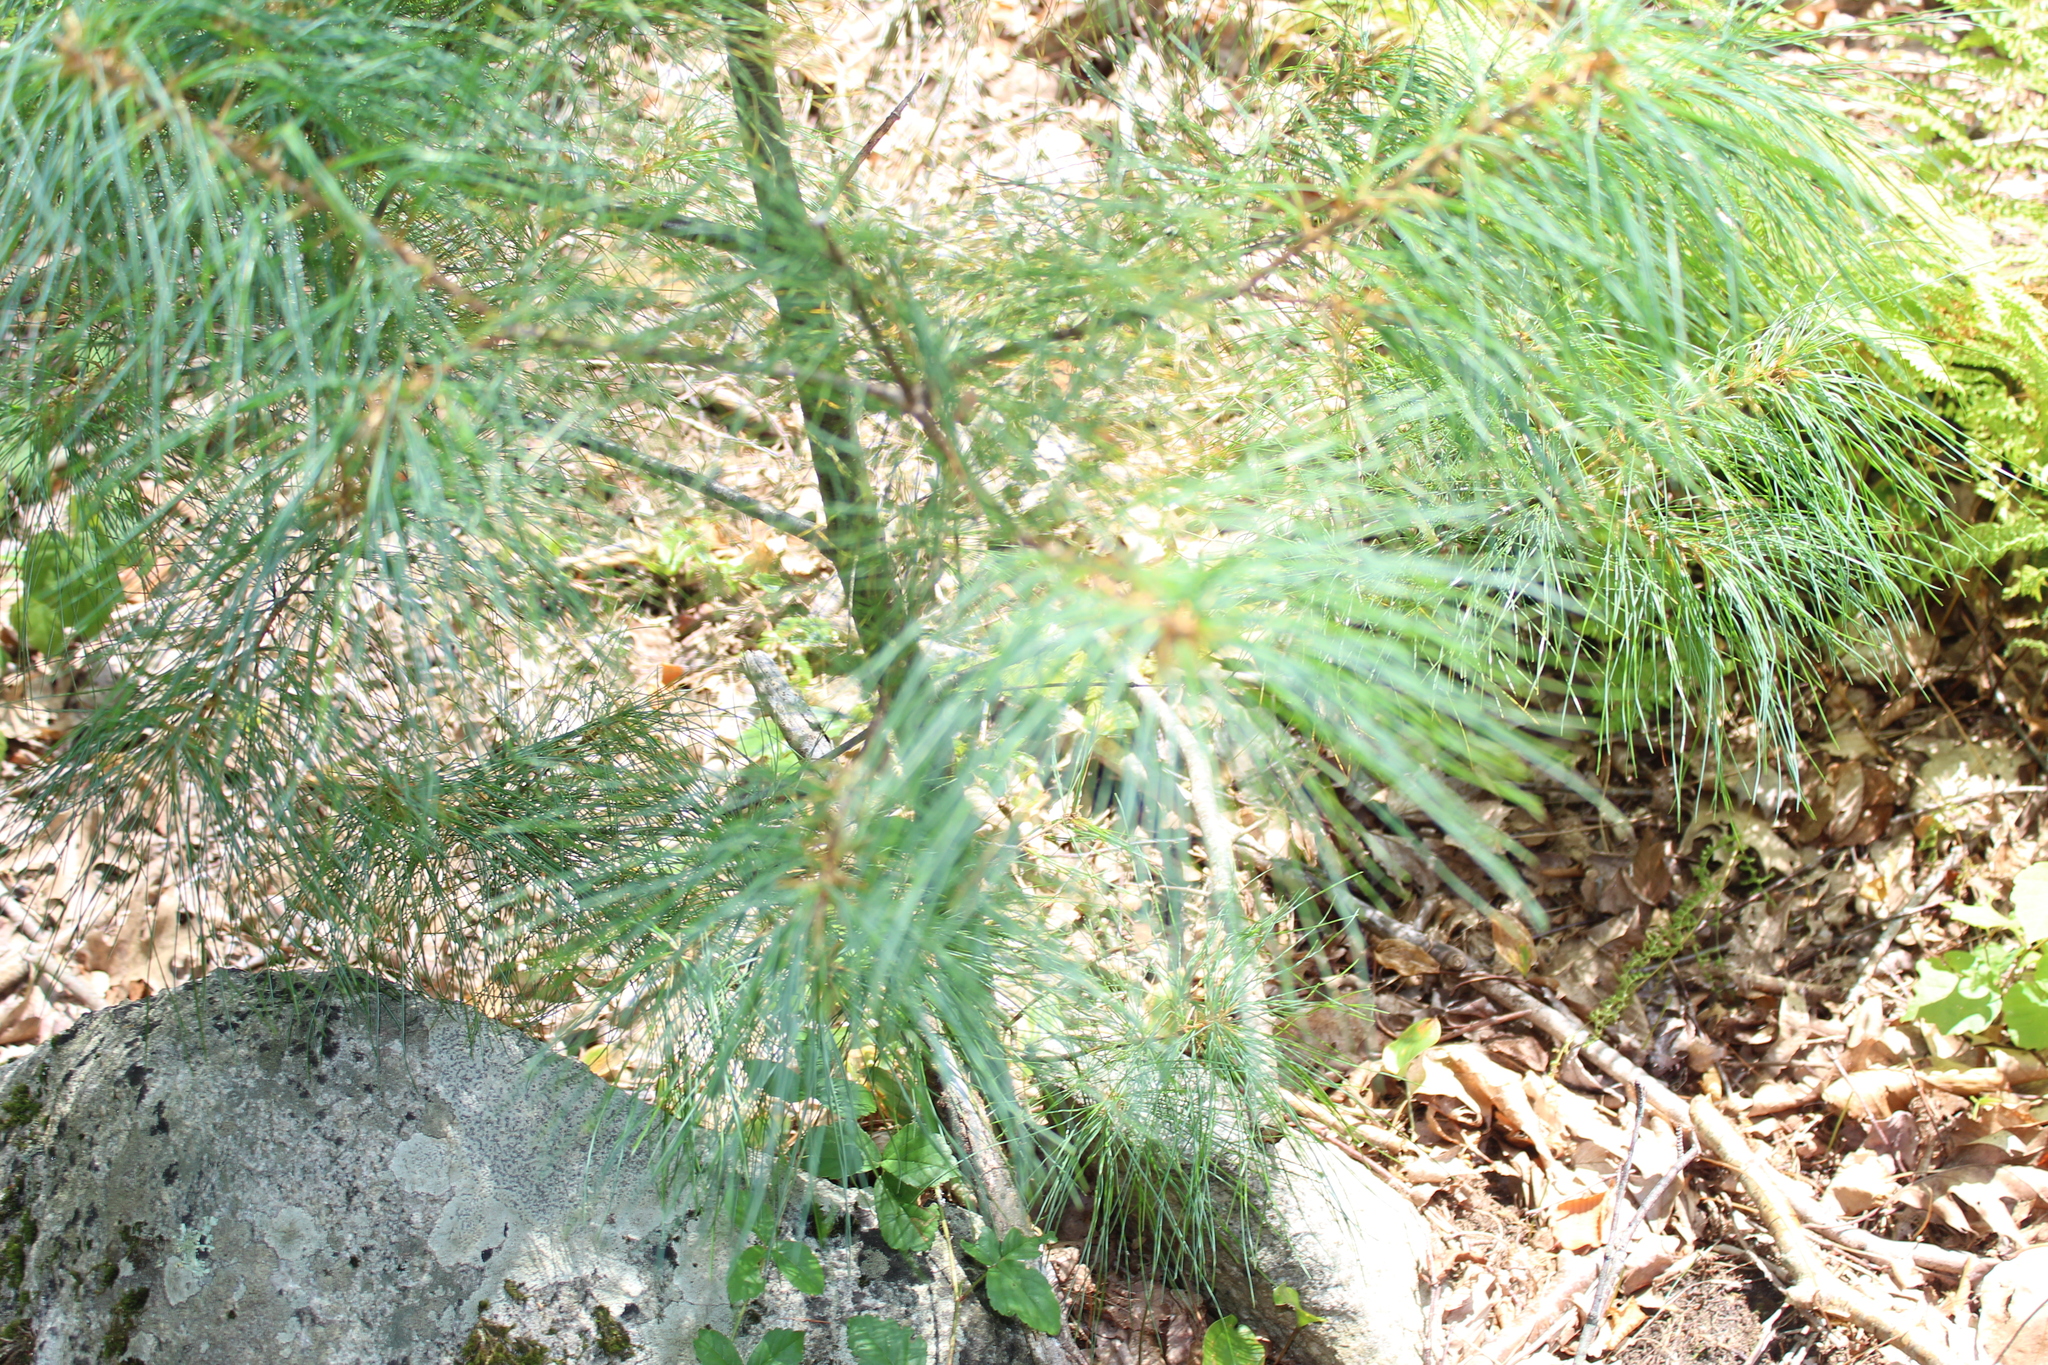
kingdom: Plantae
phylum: Tracheophyta
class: Pinopsida
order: Pinales
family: Pinaceae
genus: Pinus
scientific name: Pinus strobus
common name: Weymouth pine
